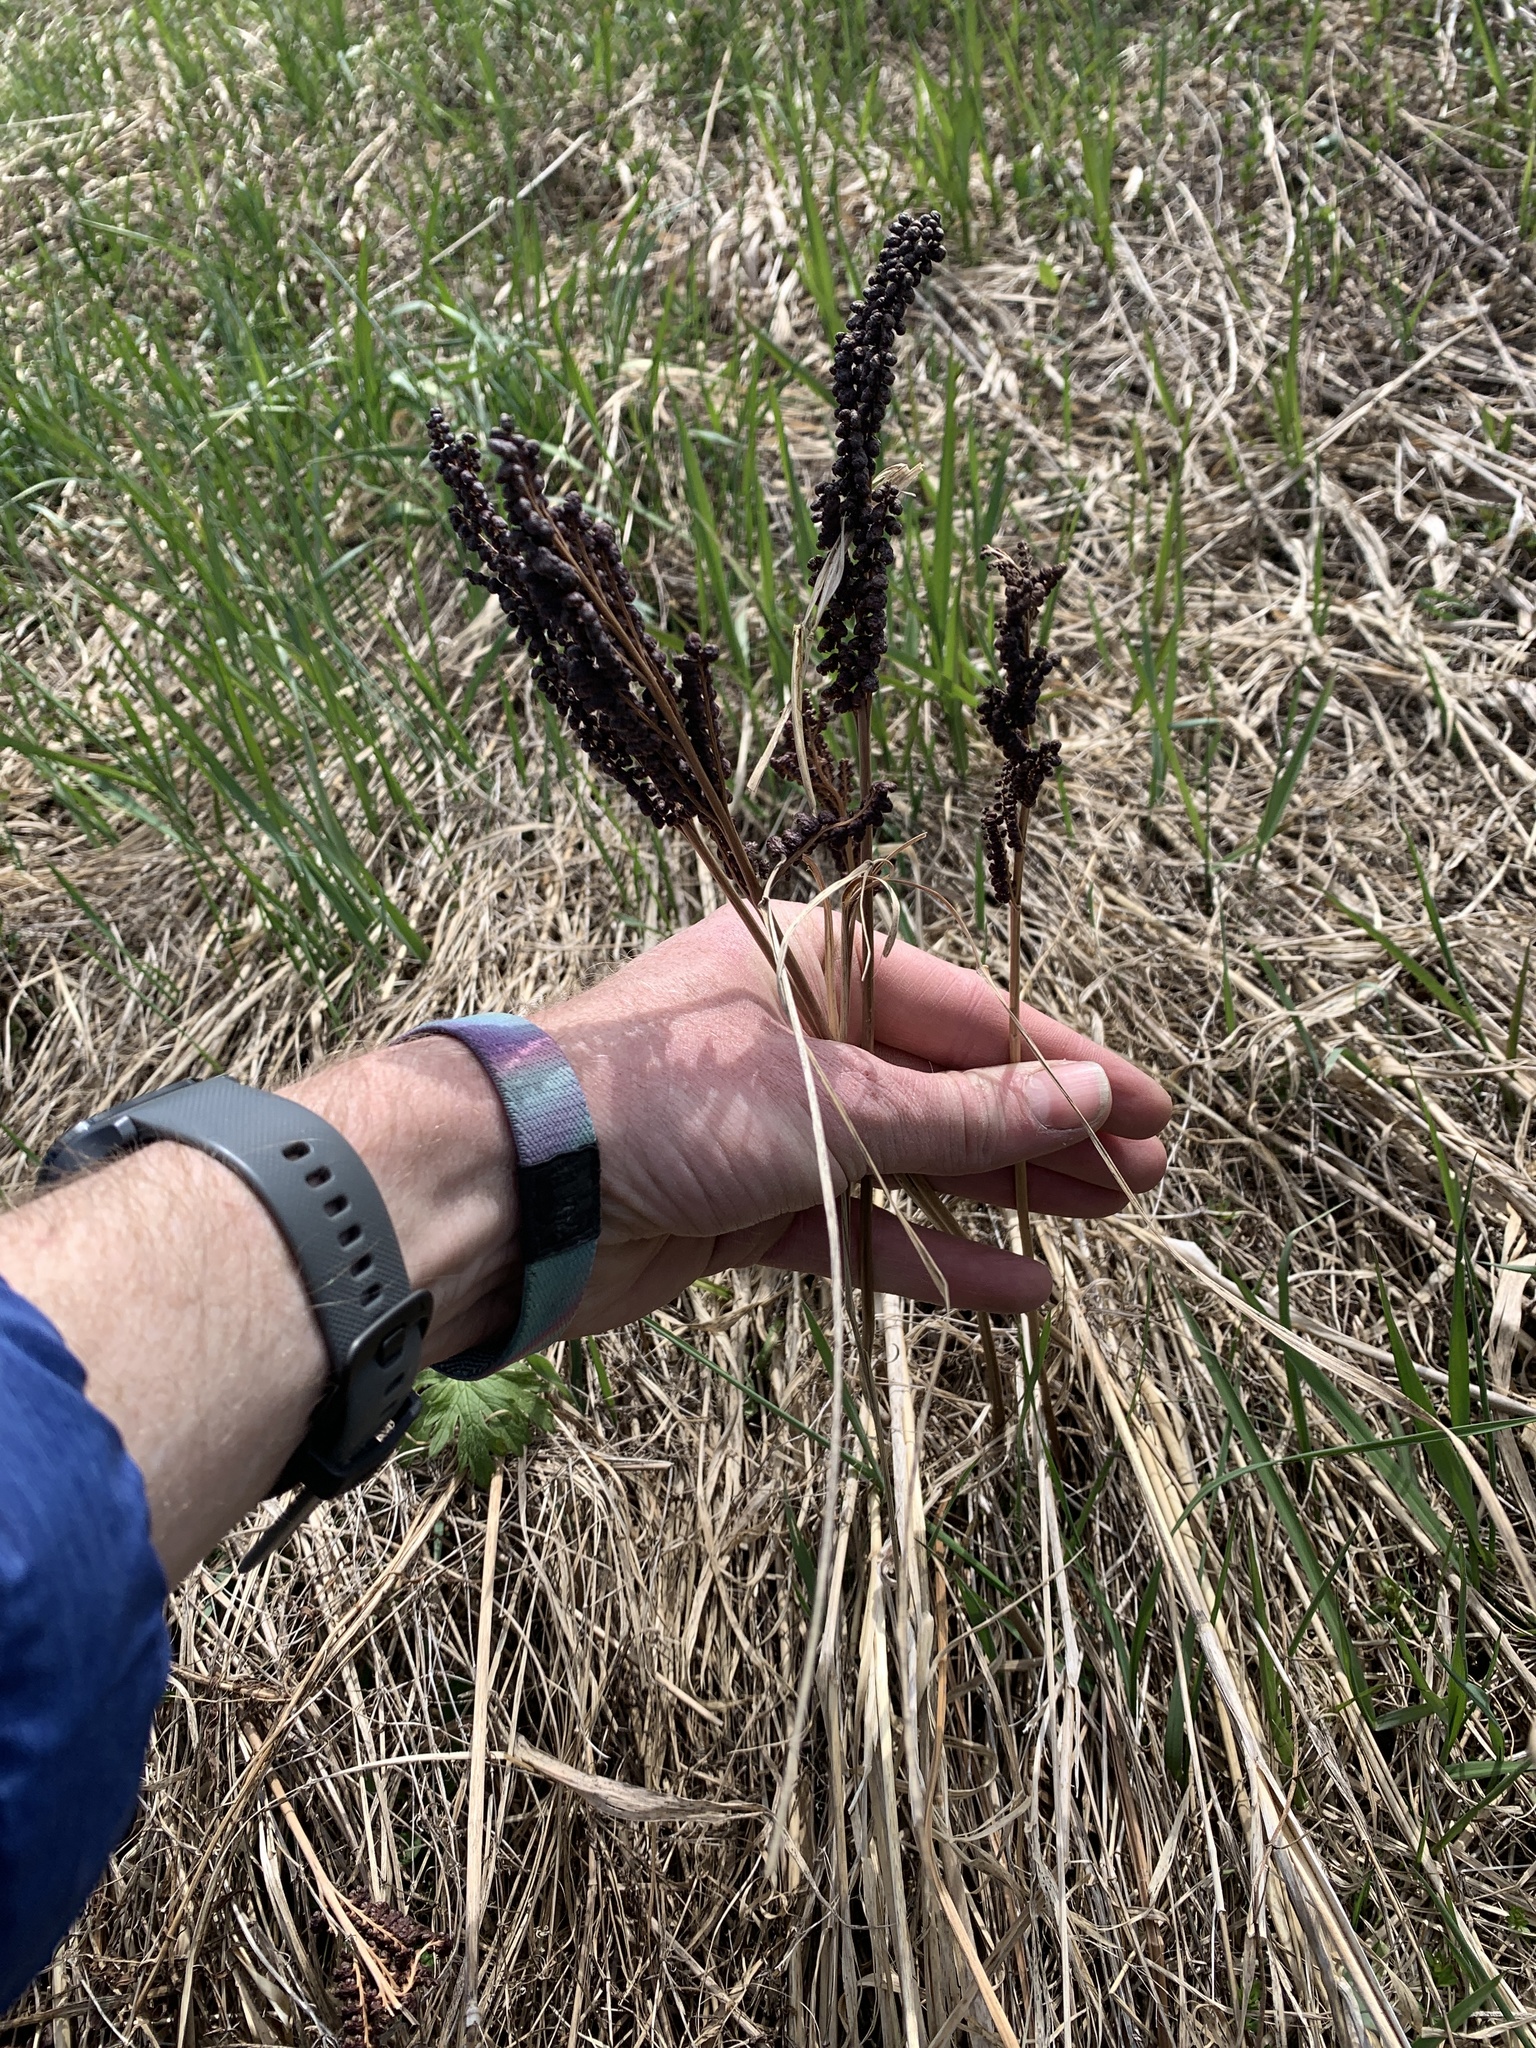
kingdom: Plantae
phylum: Tracheophyta
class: Polypodiopsida
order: Polypodiales
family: Onocleaceae
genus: Onoclea
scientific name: Onoclea sensibilis
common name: Sensitive fern
